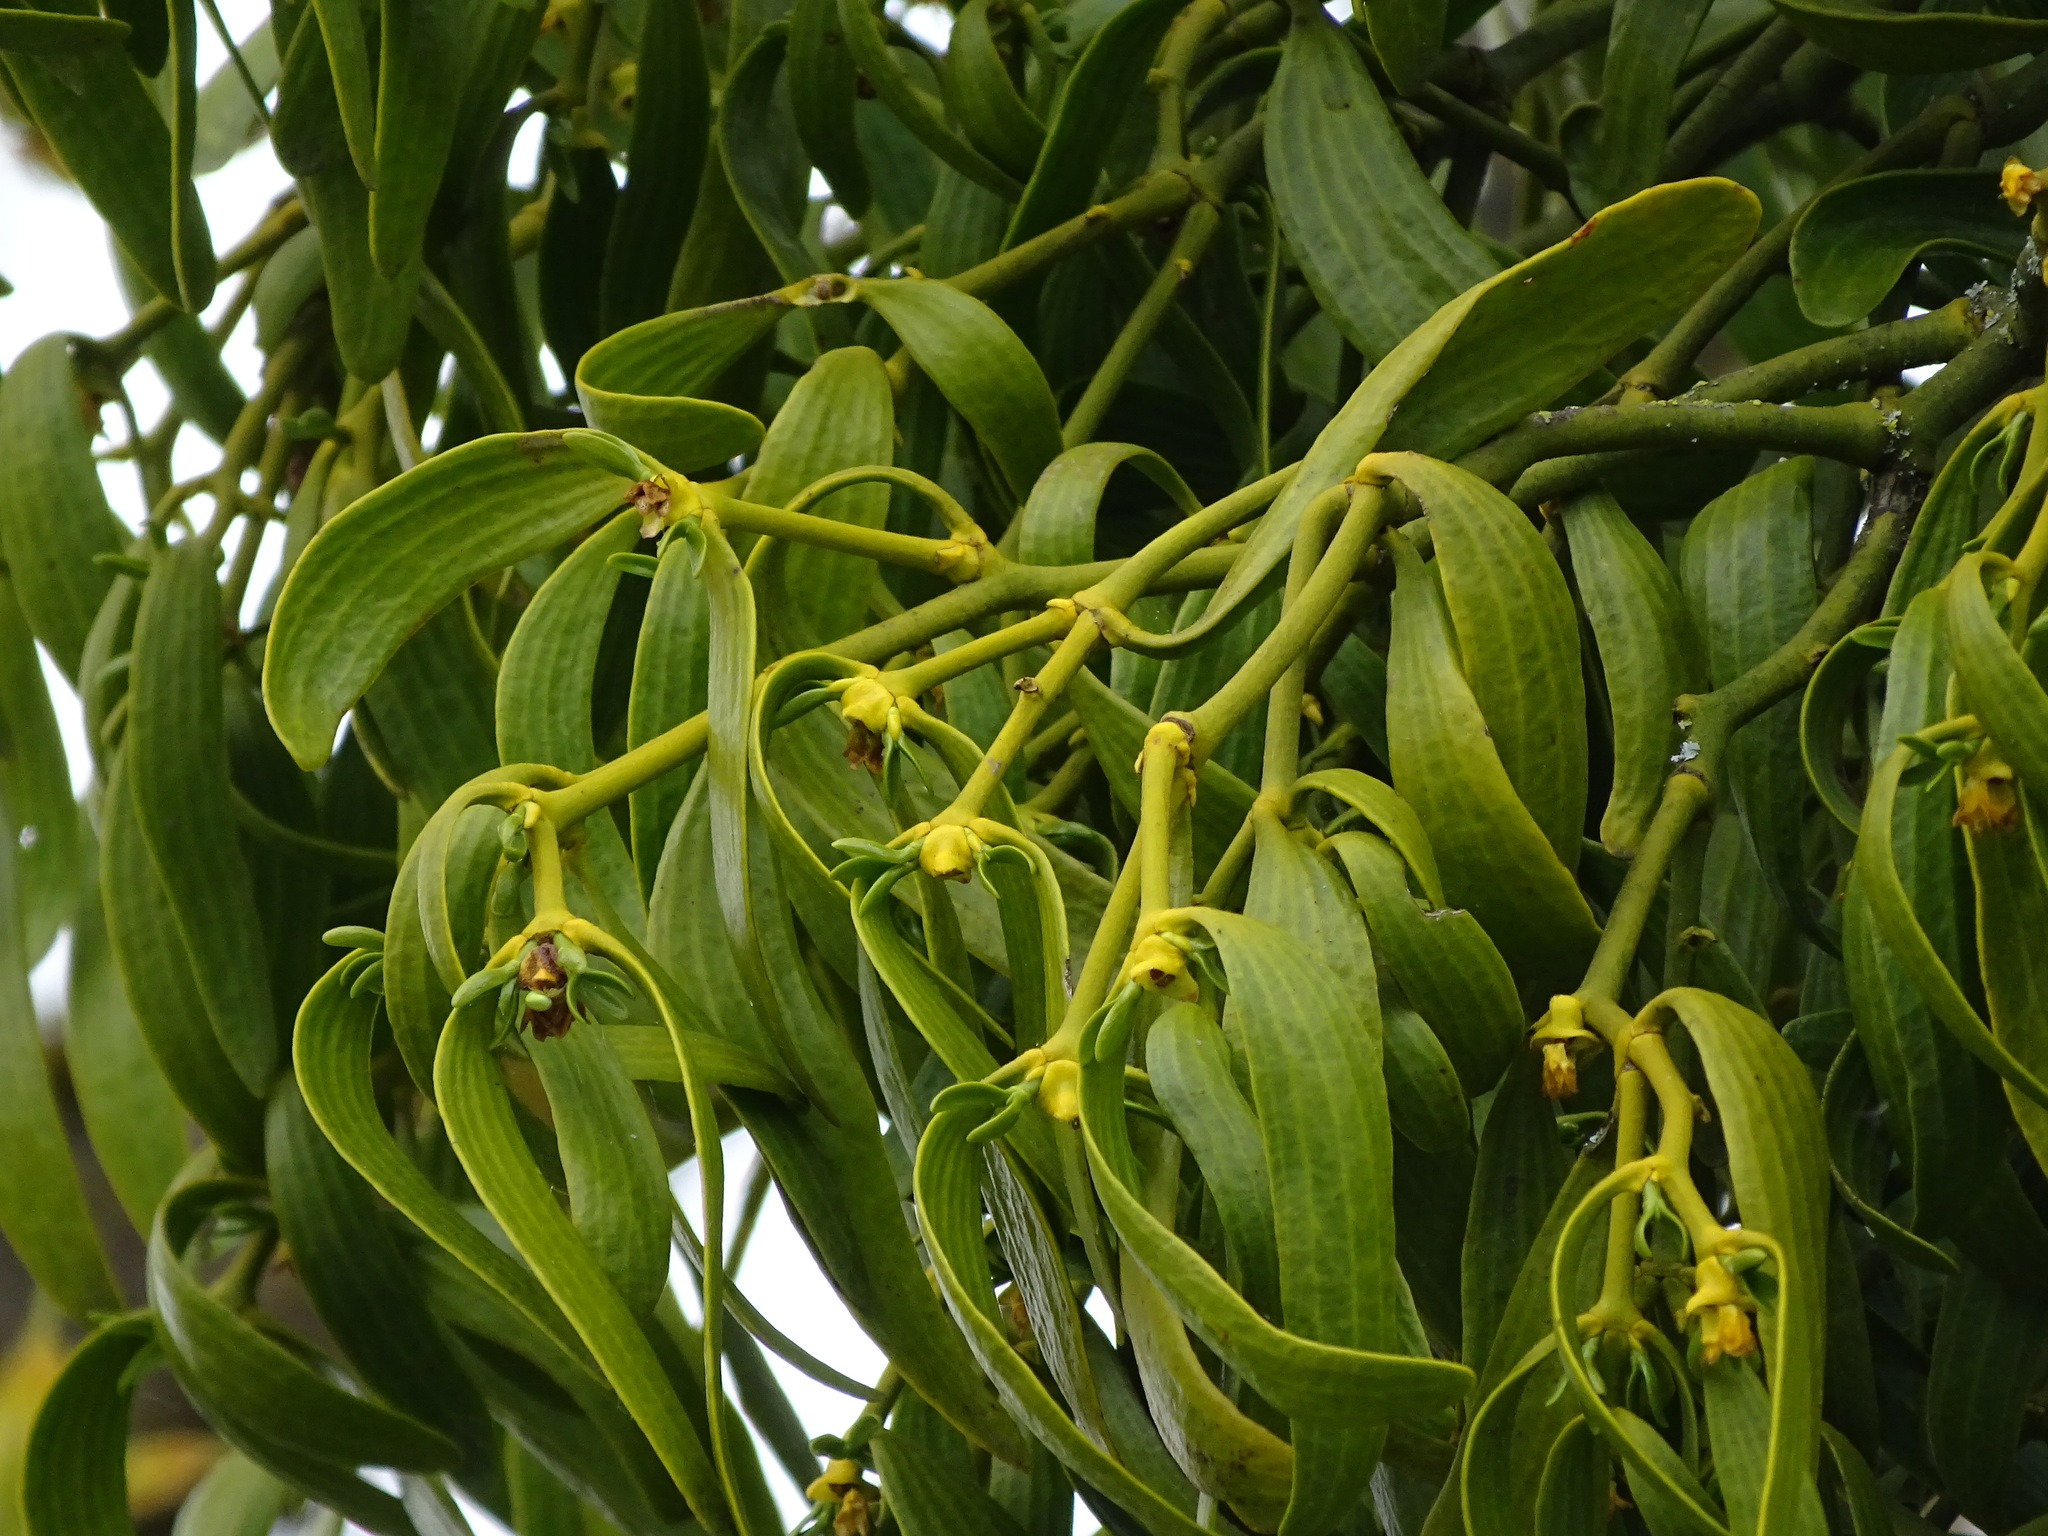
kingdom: Plantae
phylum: Tracheophyta
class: Magnoliopsida
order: Santalales
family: Viscaceae
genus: Viscum
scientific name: Viscum album
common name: Mistletoe
